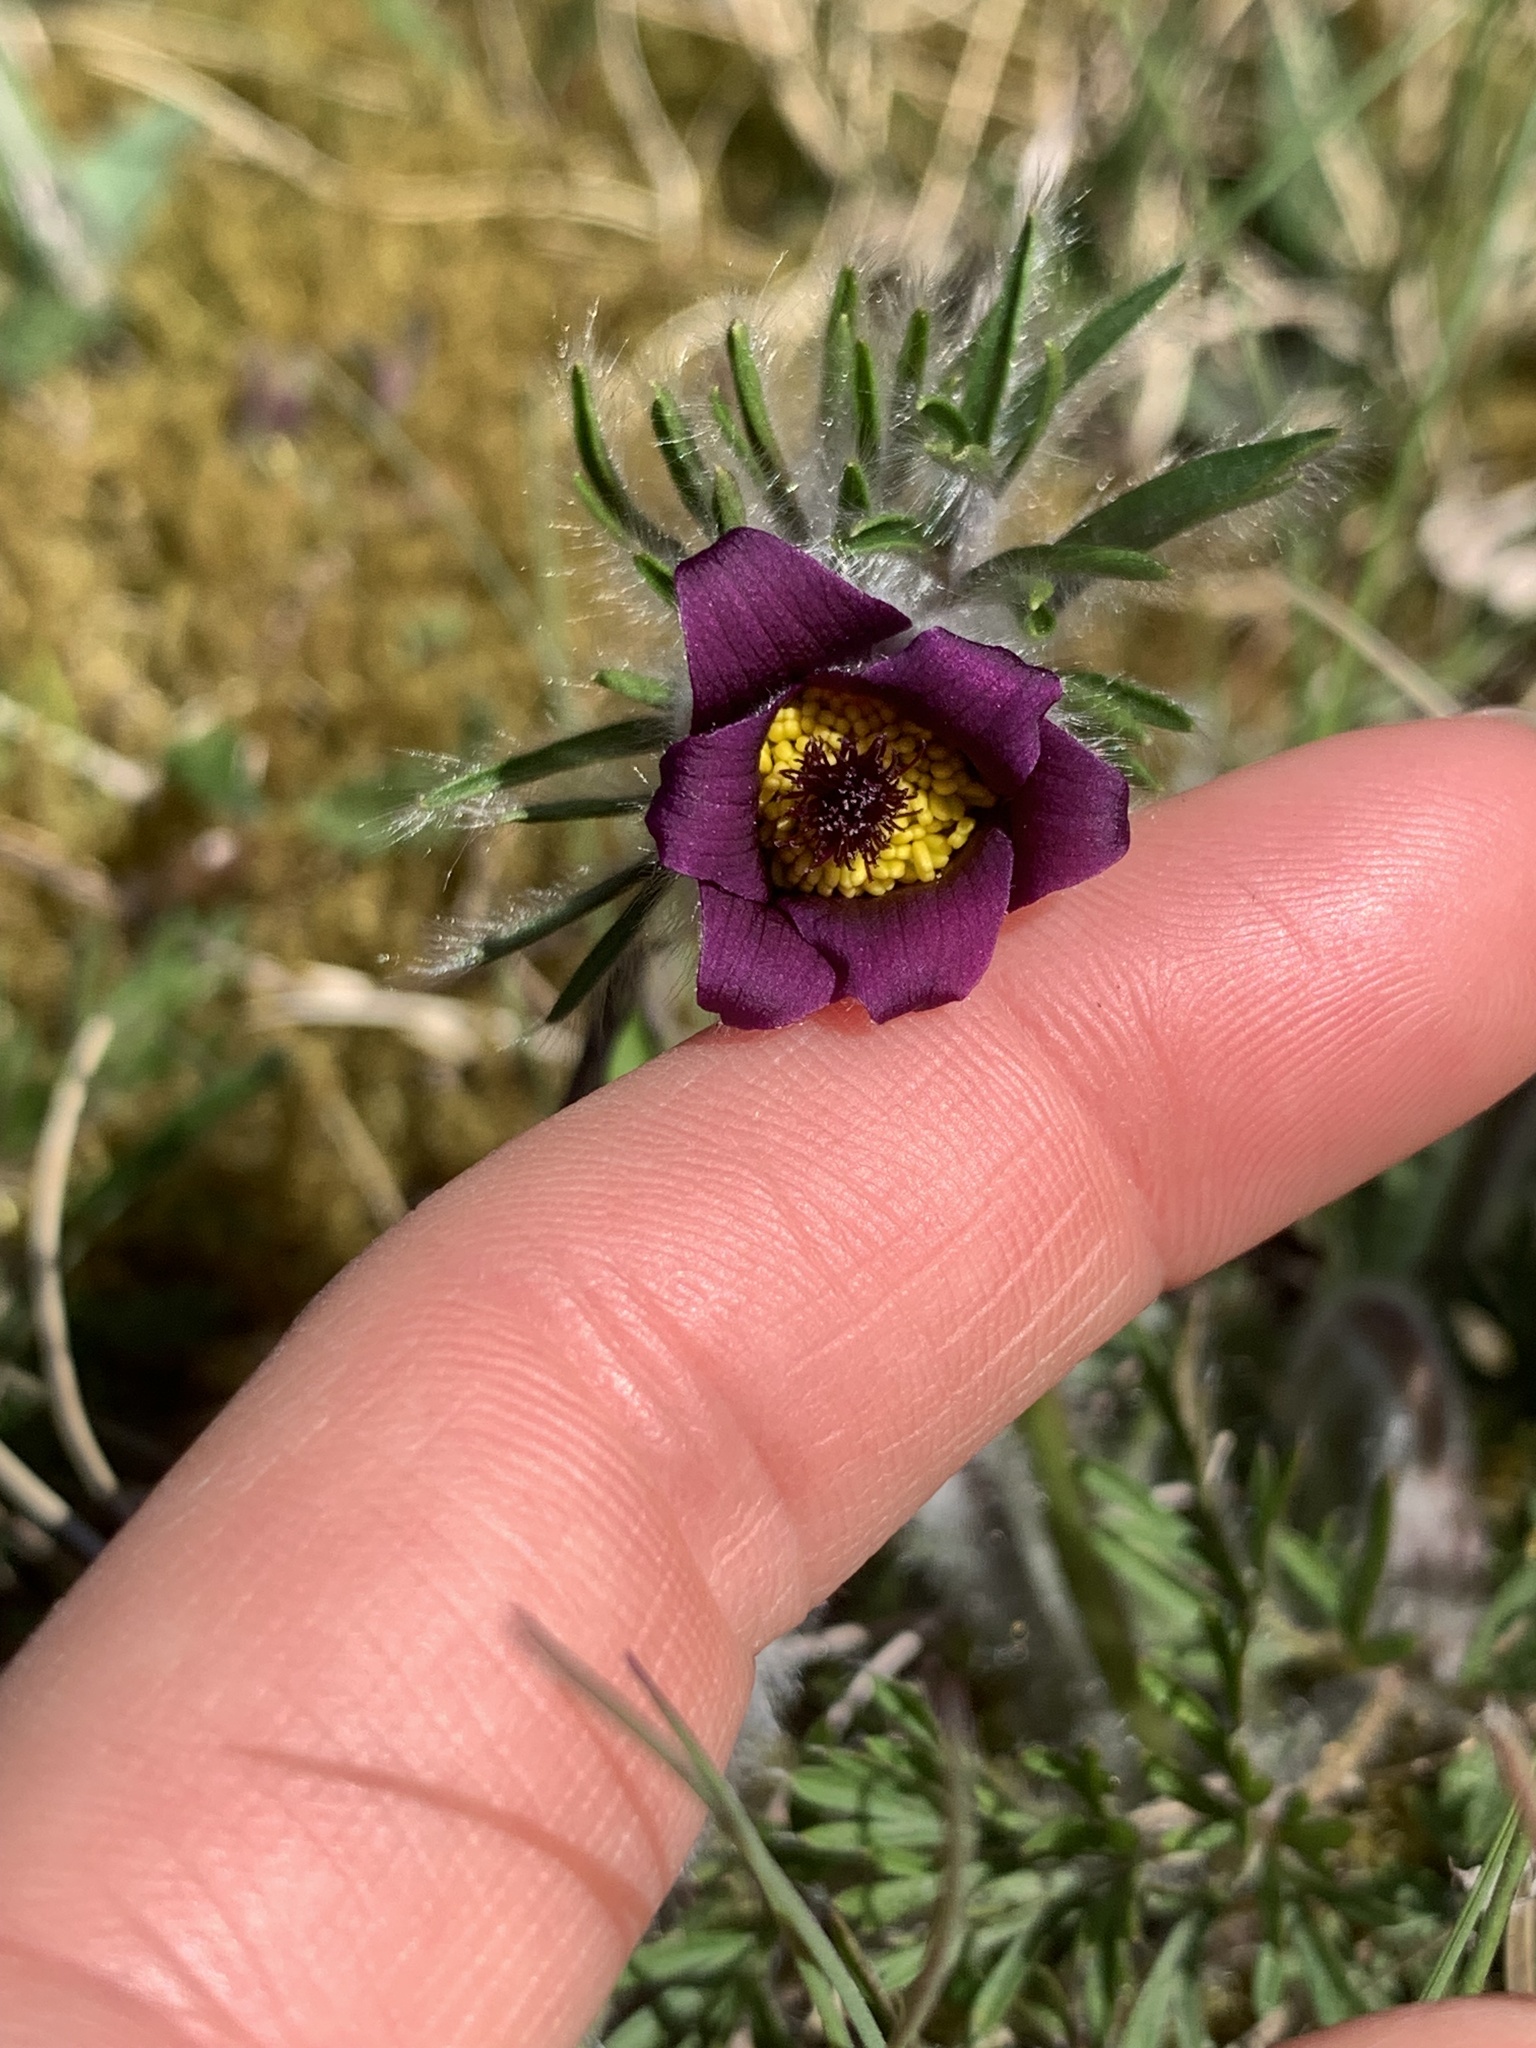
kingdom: Plantae
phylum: Tracheophyta
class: Magnoliopsida
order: Ranunculales
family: Ranunculaceae
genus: Pulsatilla
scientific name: Pulsatilla pratensis
